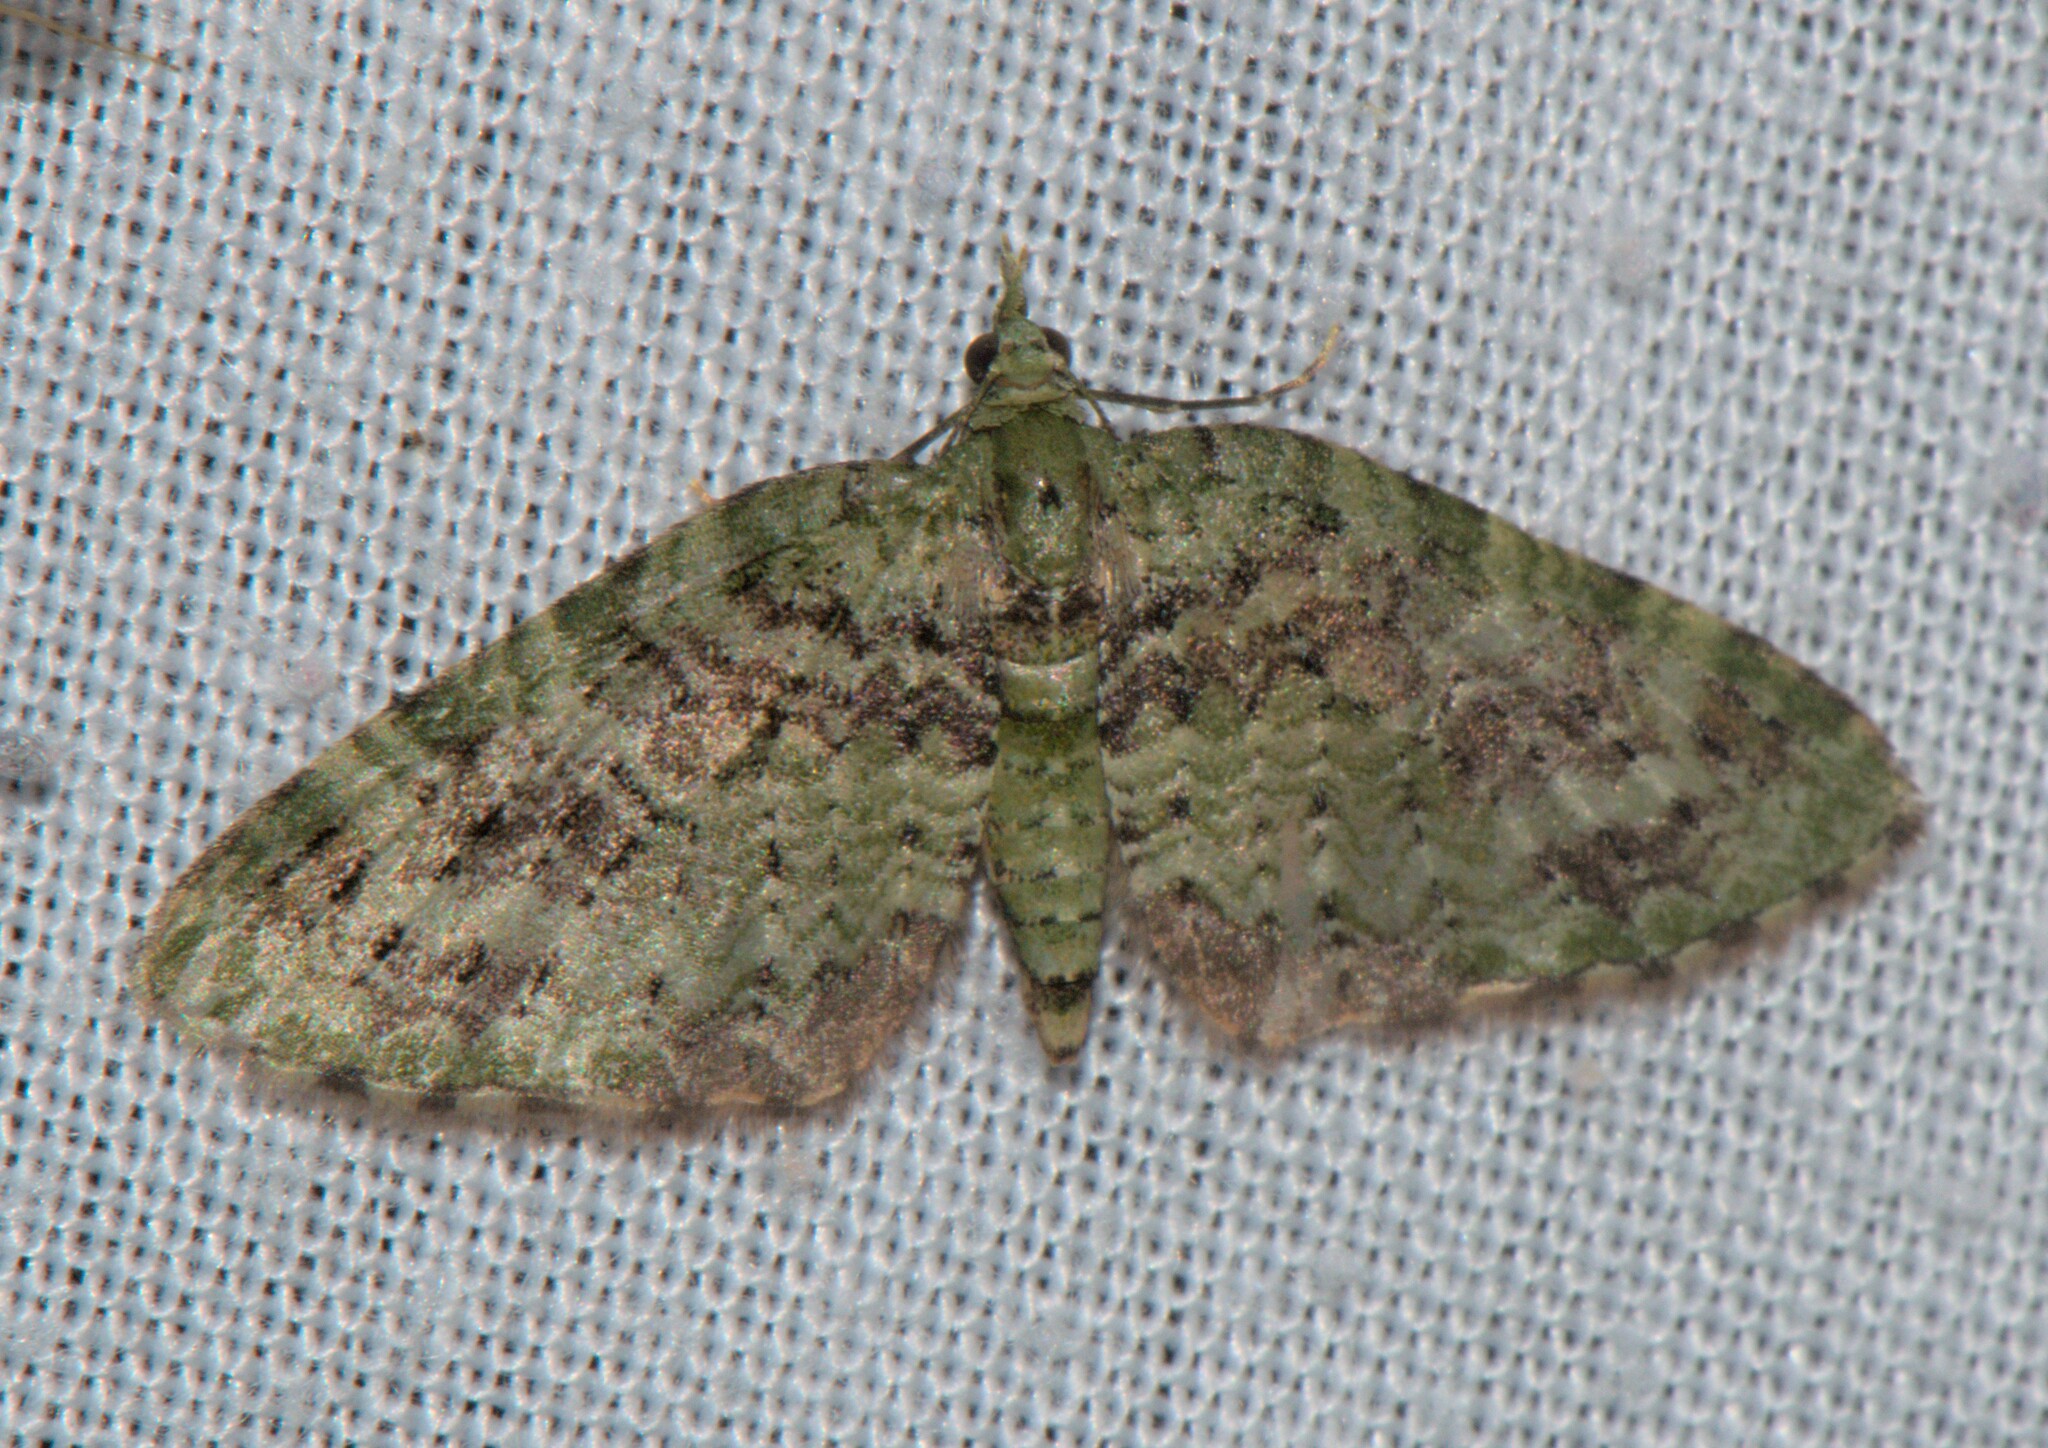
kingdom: Animalia
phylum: Arthropoda
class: Insecta
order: Lepidoptera
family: Geometridae
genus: Chloroclystis
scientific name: Chloroclystis rubroviridis
